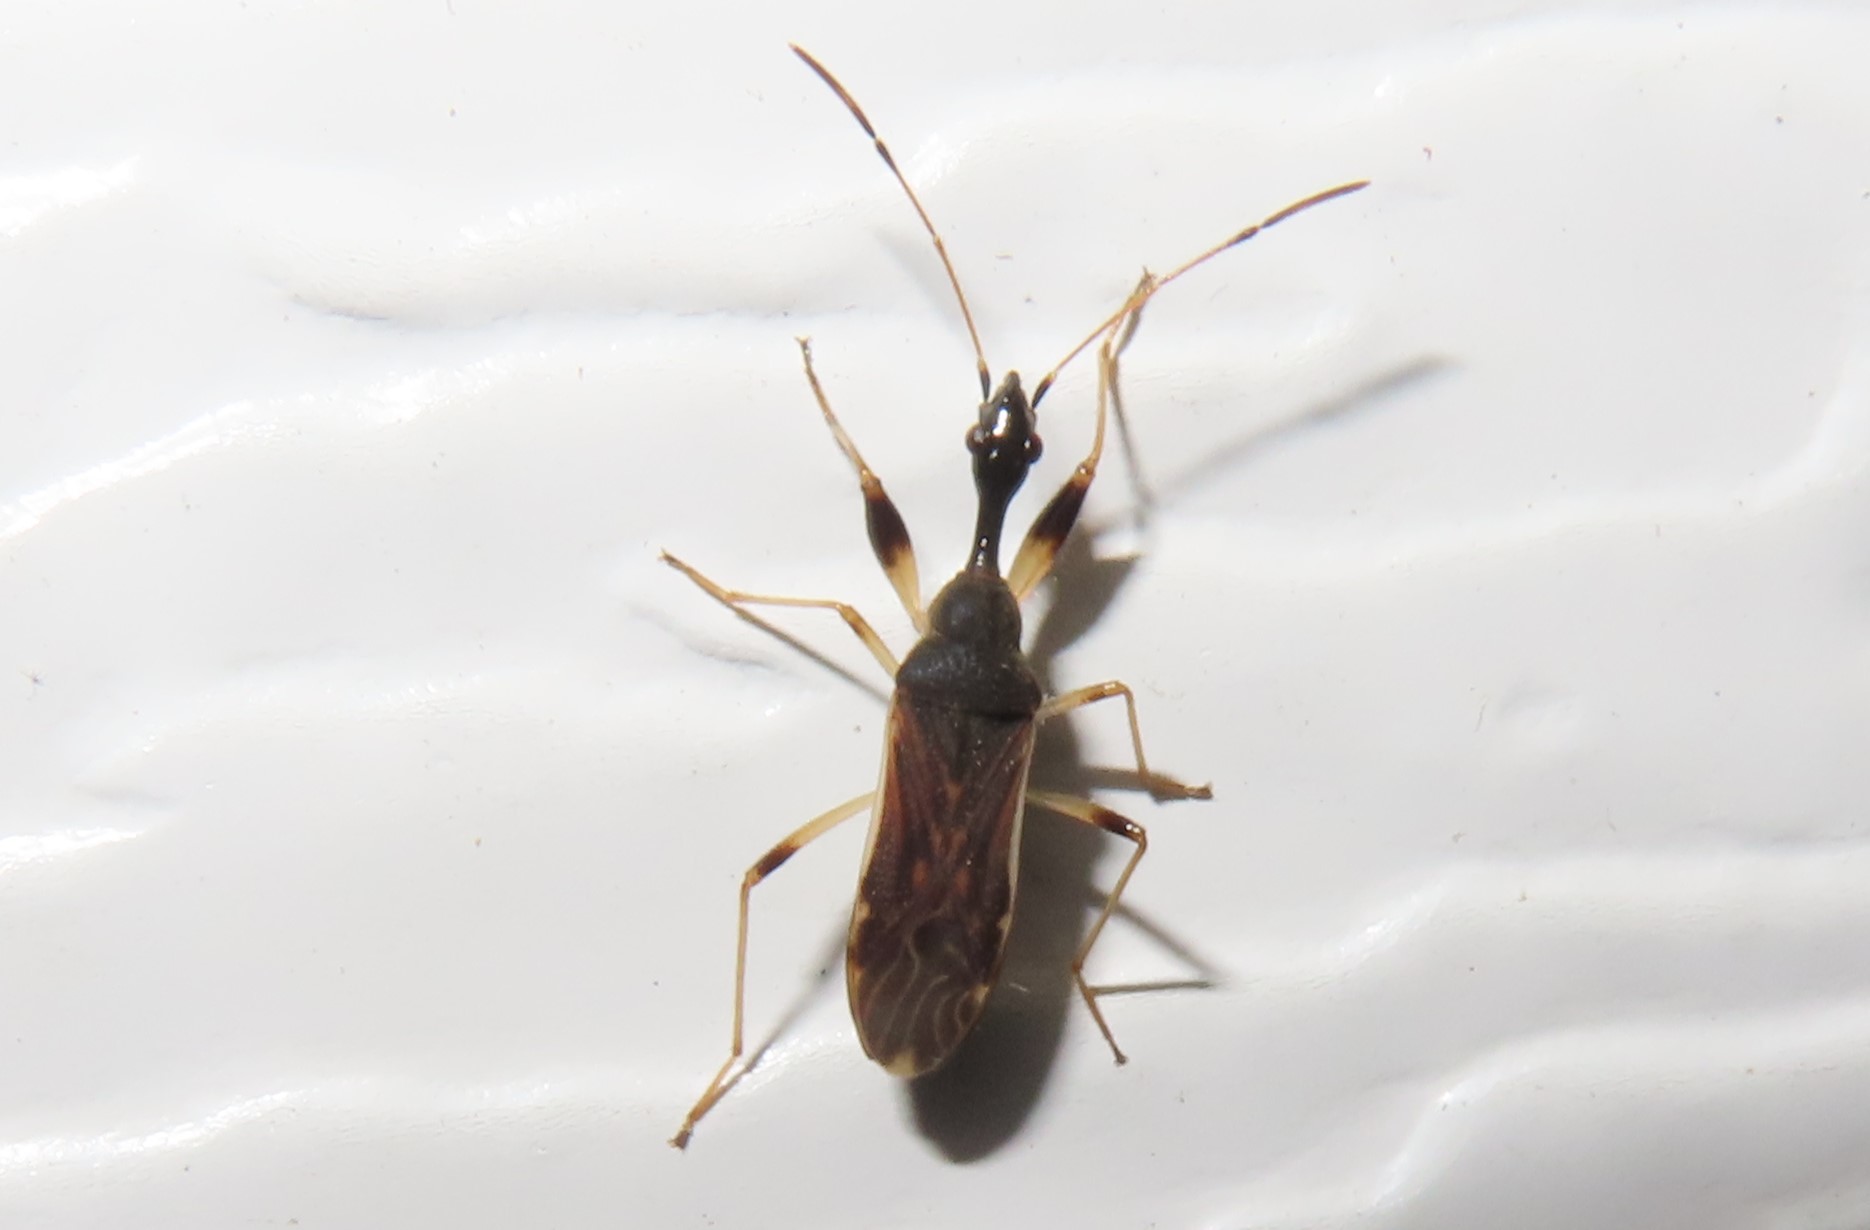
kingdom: Animalia
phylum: Arthropoda
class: Insecta
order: Hemiptera
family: Rhyparochromidae
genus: Myodocha
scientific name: Myodocha serripes
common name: Long-necked seed bug
